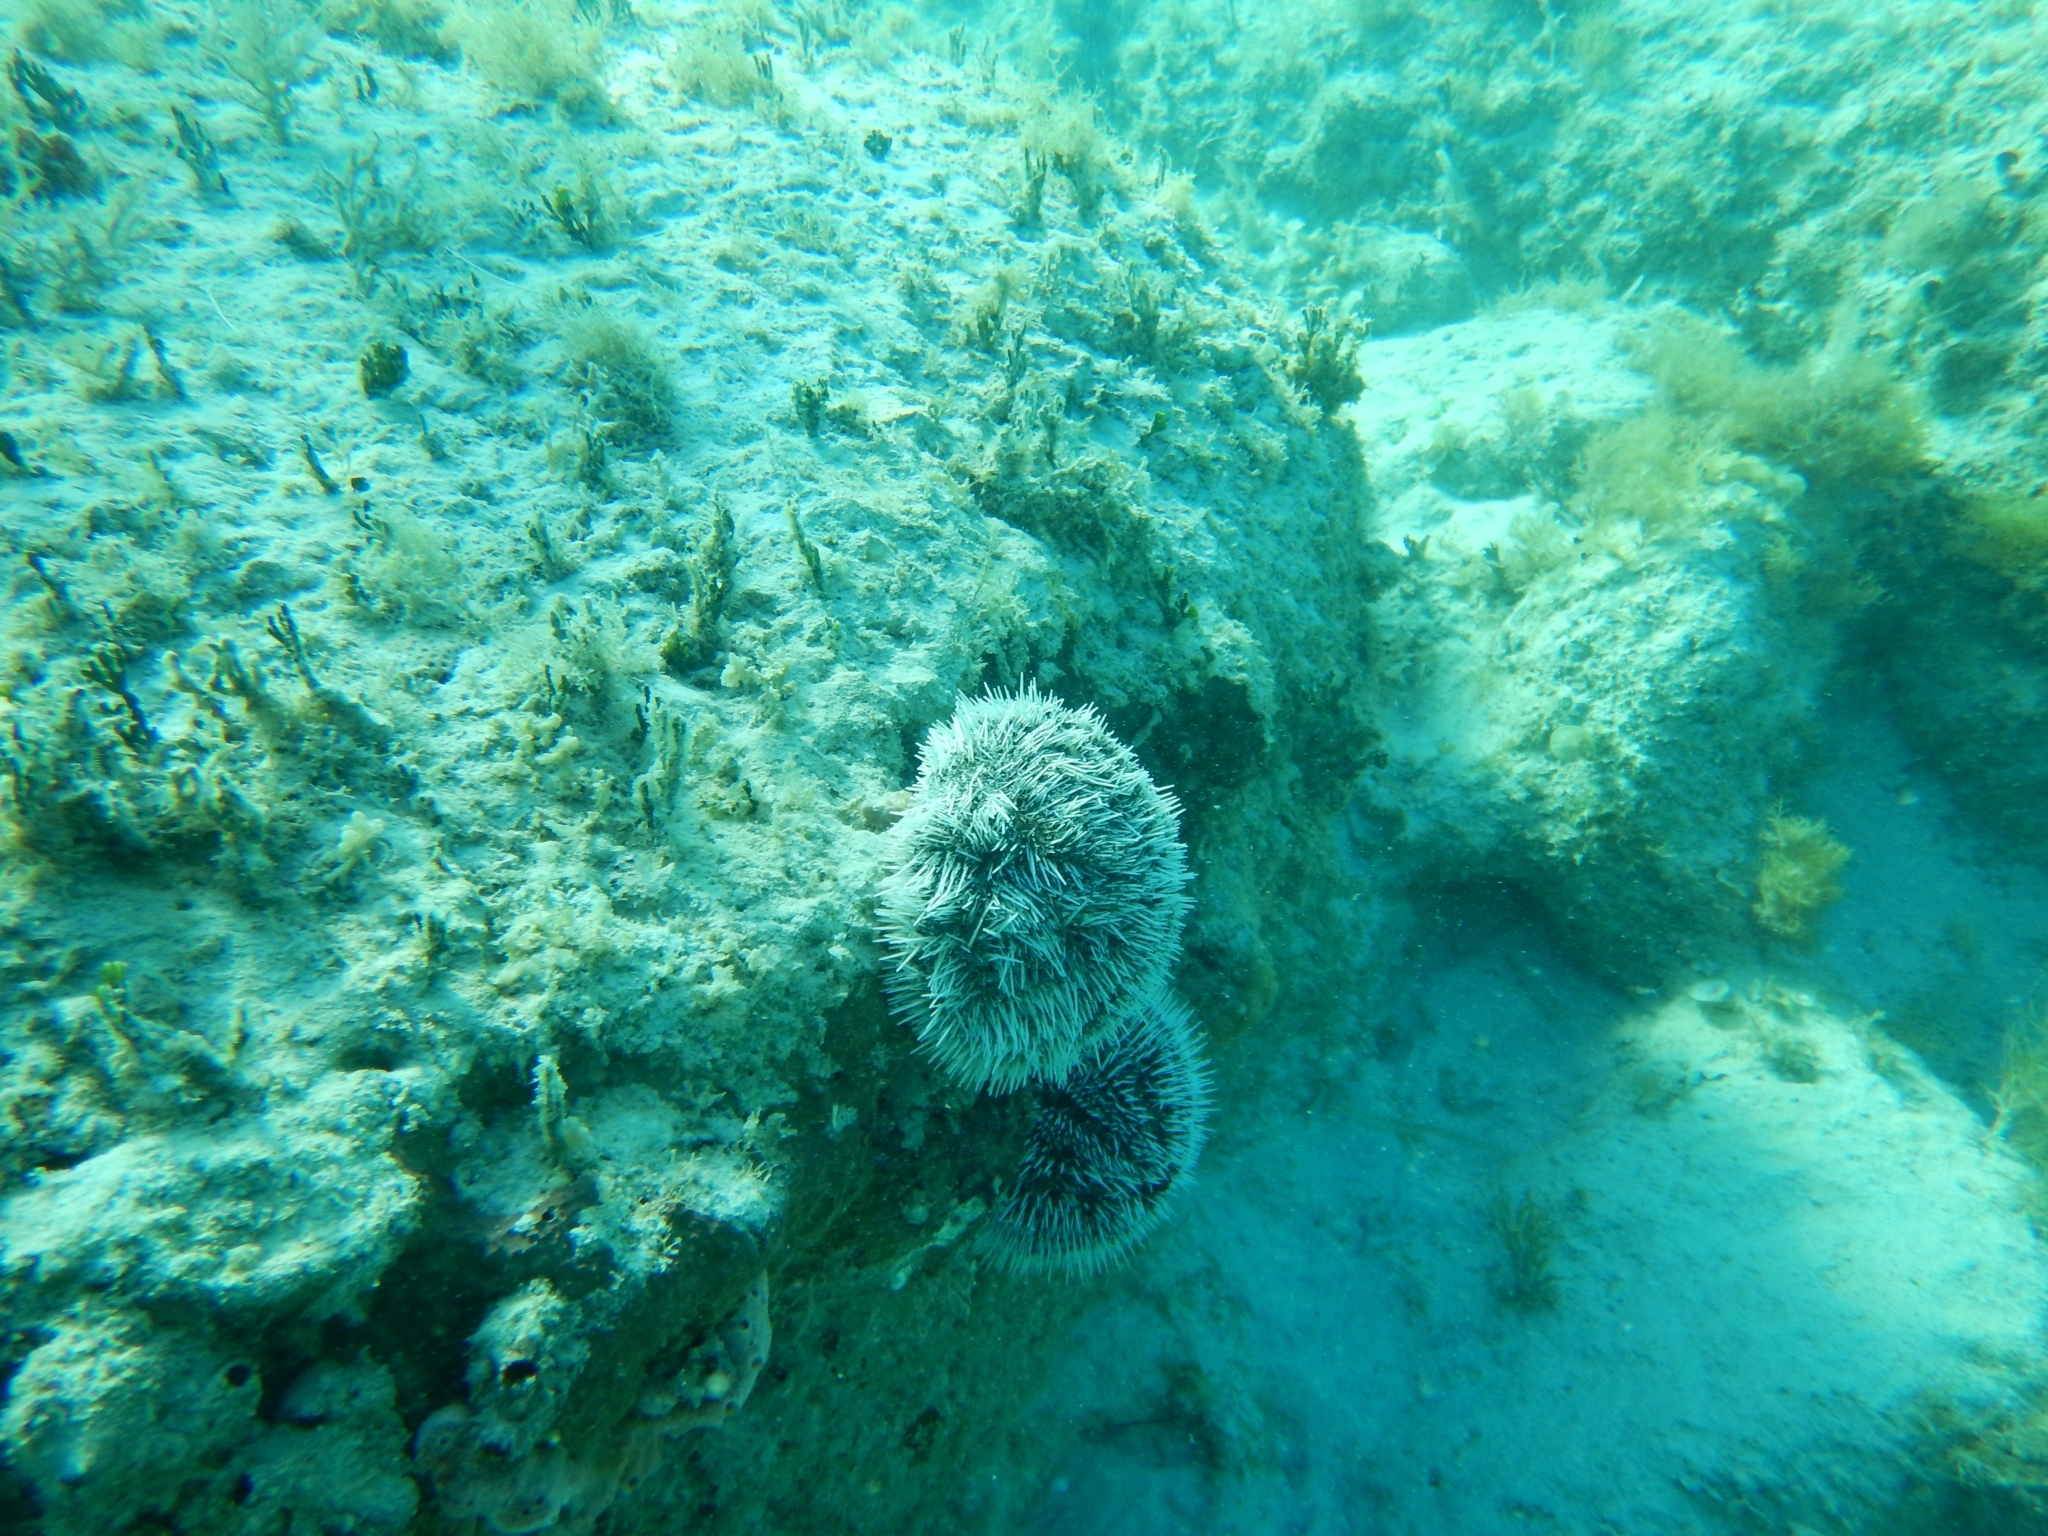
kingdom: Animalia
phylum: Echinodermata
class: Echinoidea
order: Camarodonta
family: Toxopneustidae
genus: Tripneustes
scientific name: Tripneustes ventricosus
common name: West indian sea egg
